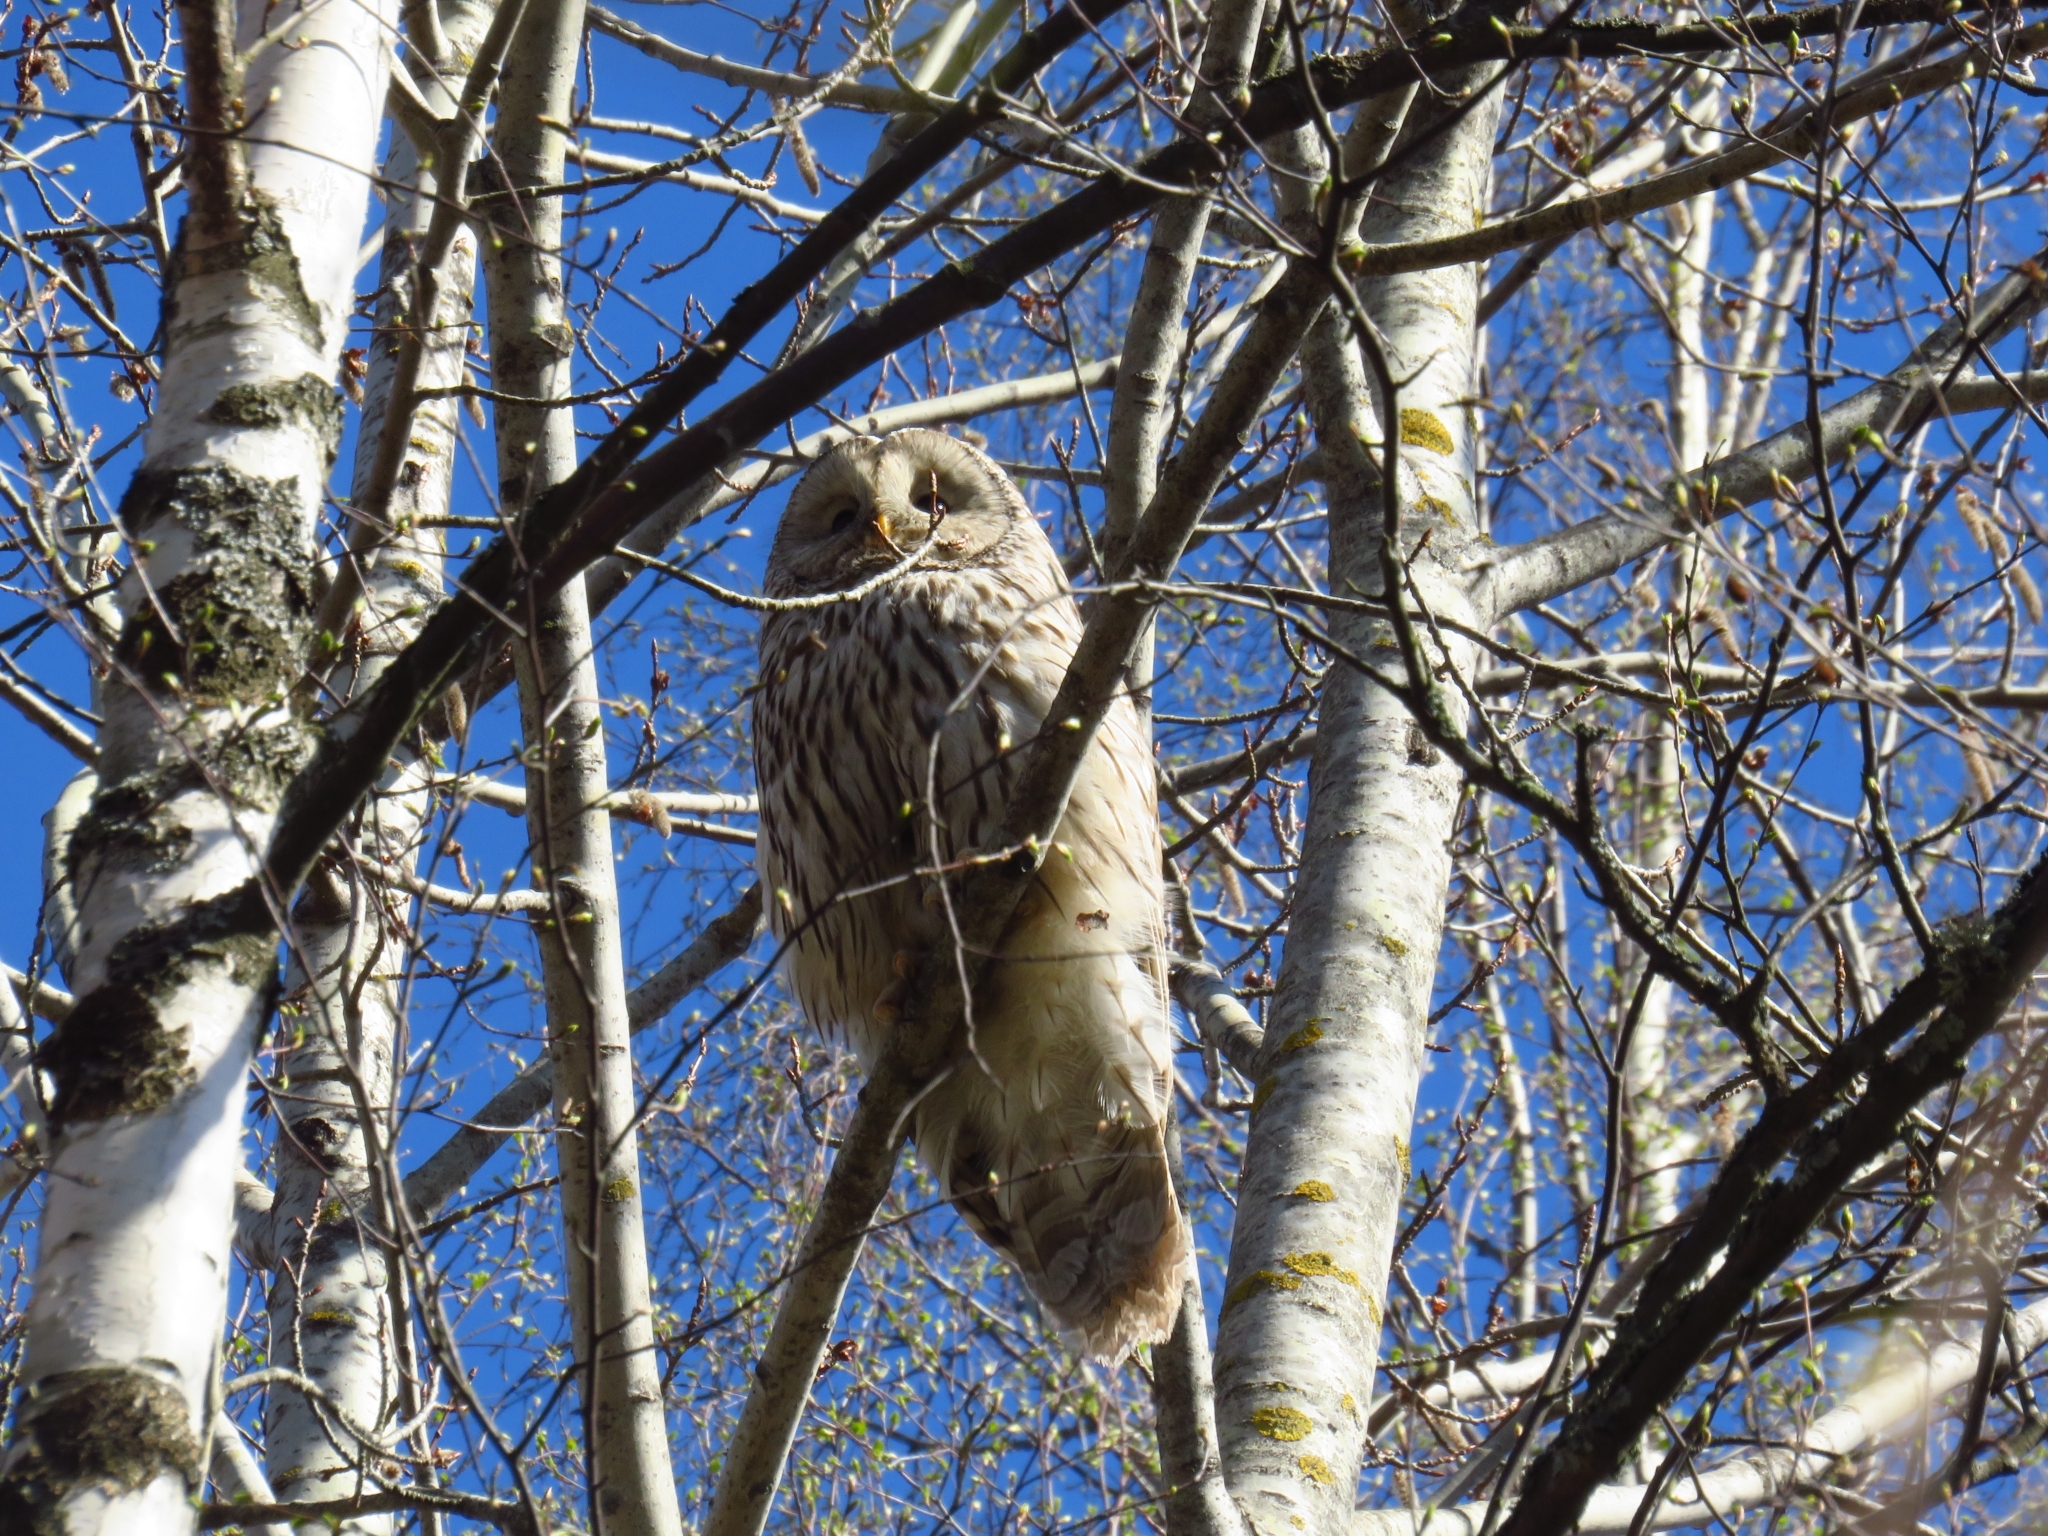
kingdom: Animalia
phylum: Chordata
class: Aves
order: Strigiformes
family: Strigidae
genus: Strix
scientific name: Strix uralensis
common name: Ural owl
